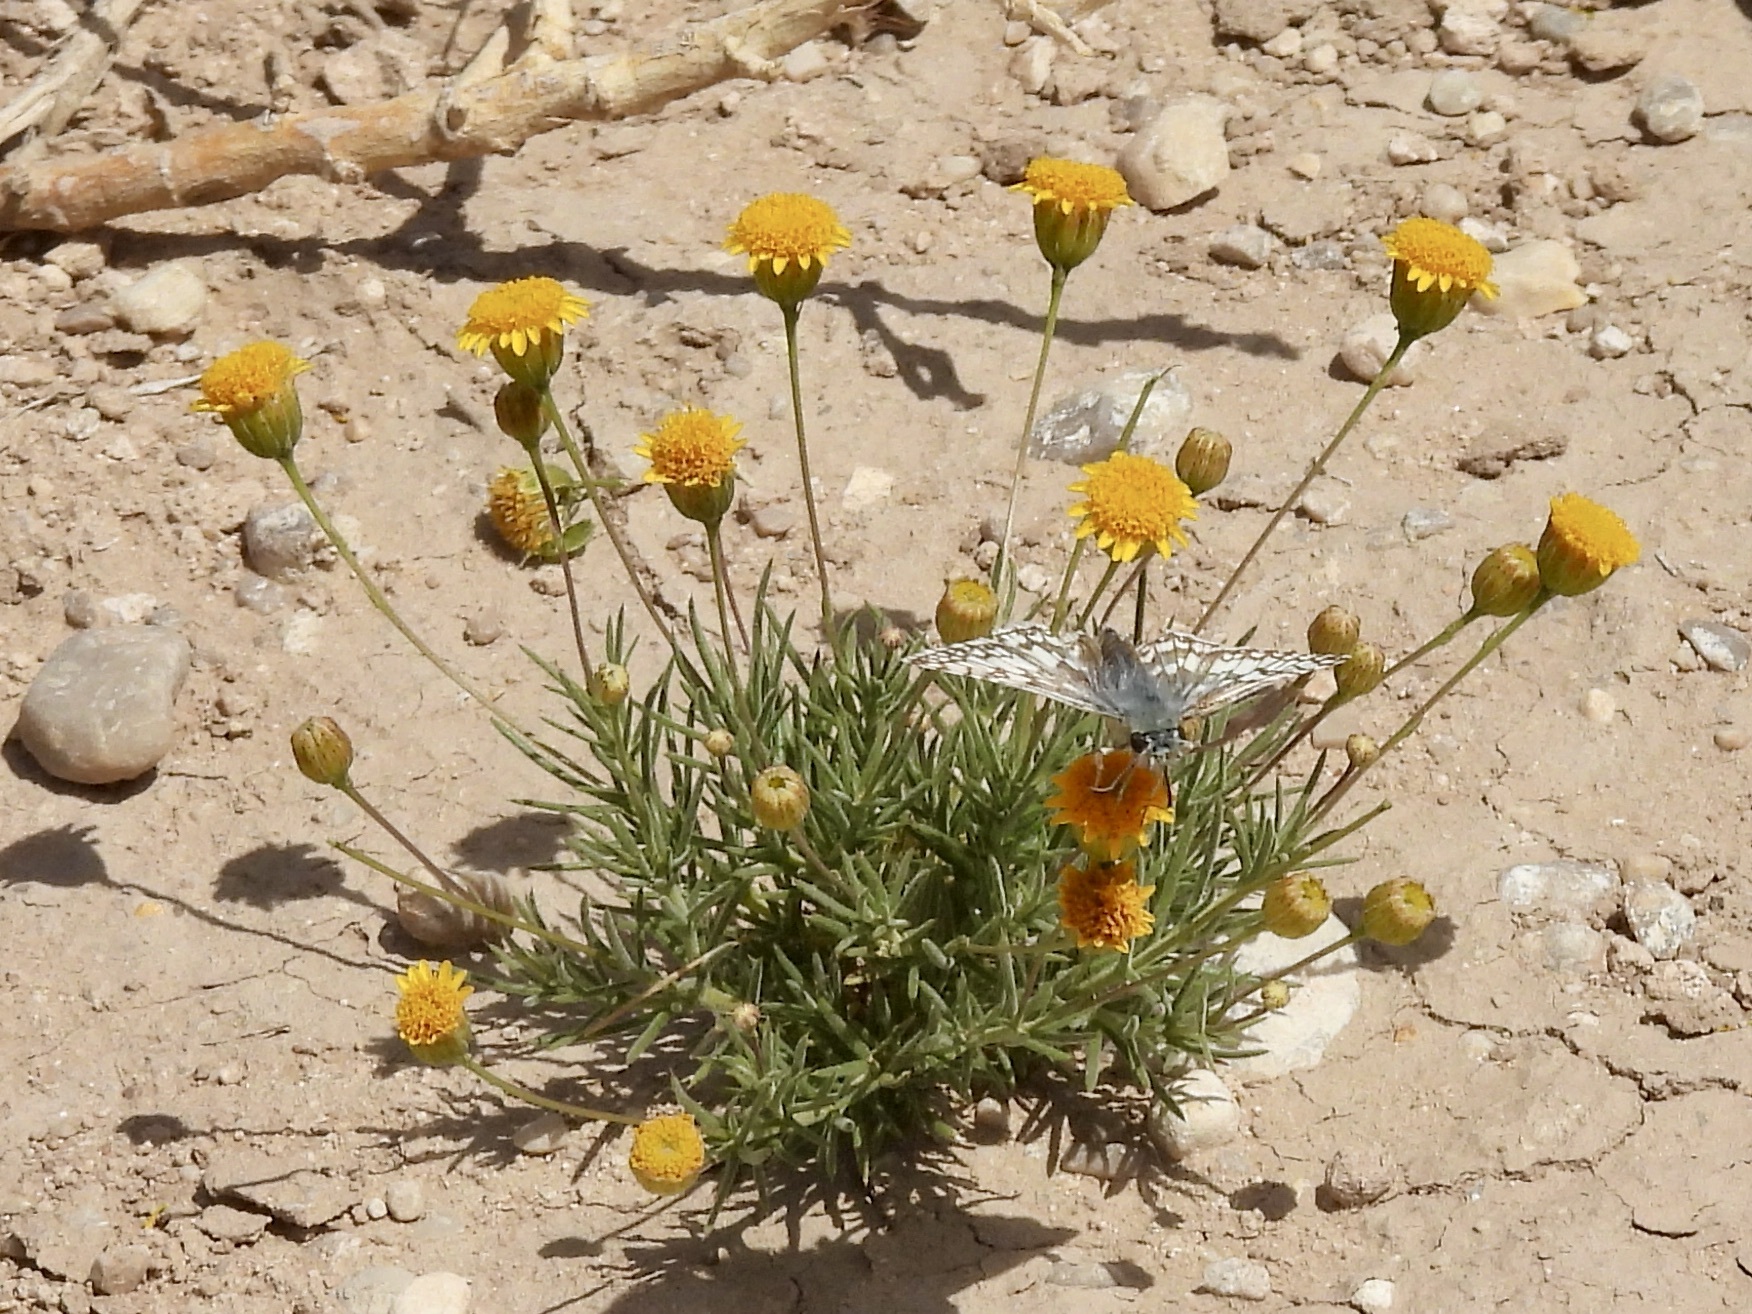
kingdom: Plantae
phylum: Tracheophyta
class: Magnoliopsida
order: Asterales
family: Asteraceae
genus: Thymophylla
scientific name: Thymophylla pentachaeta
